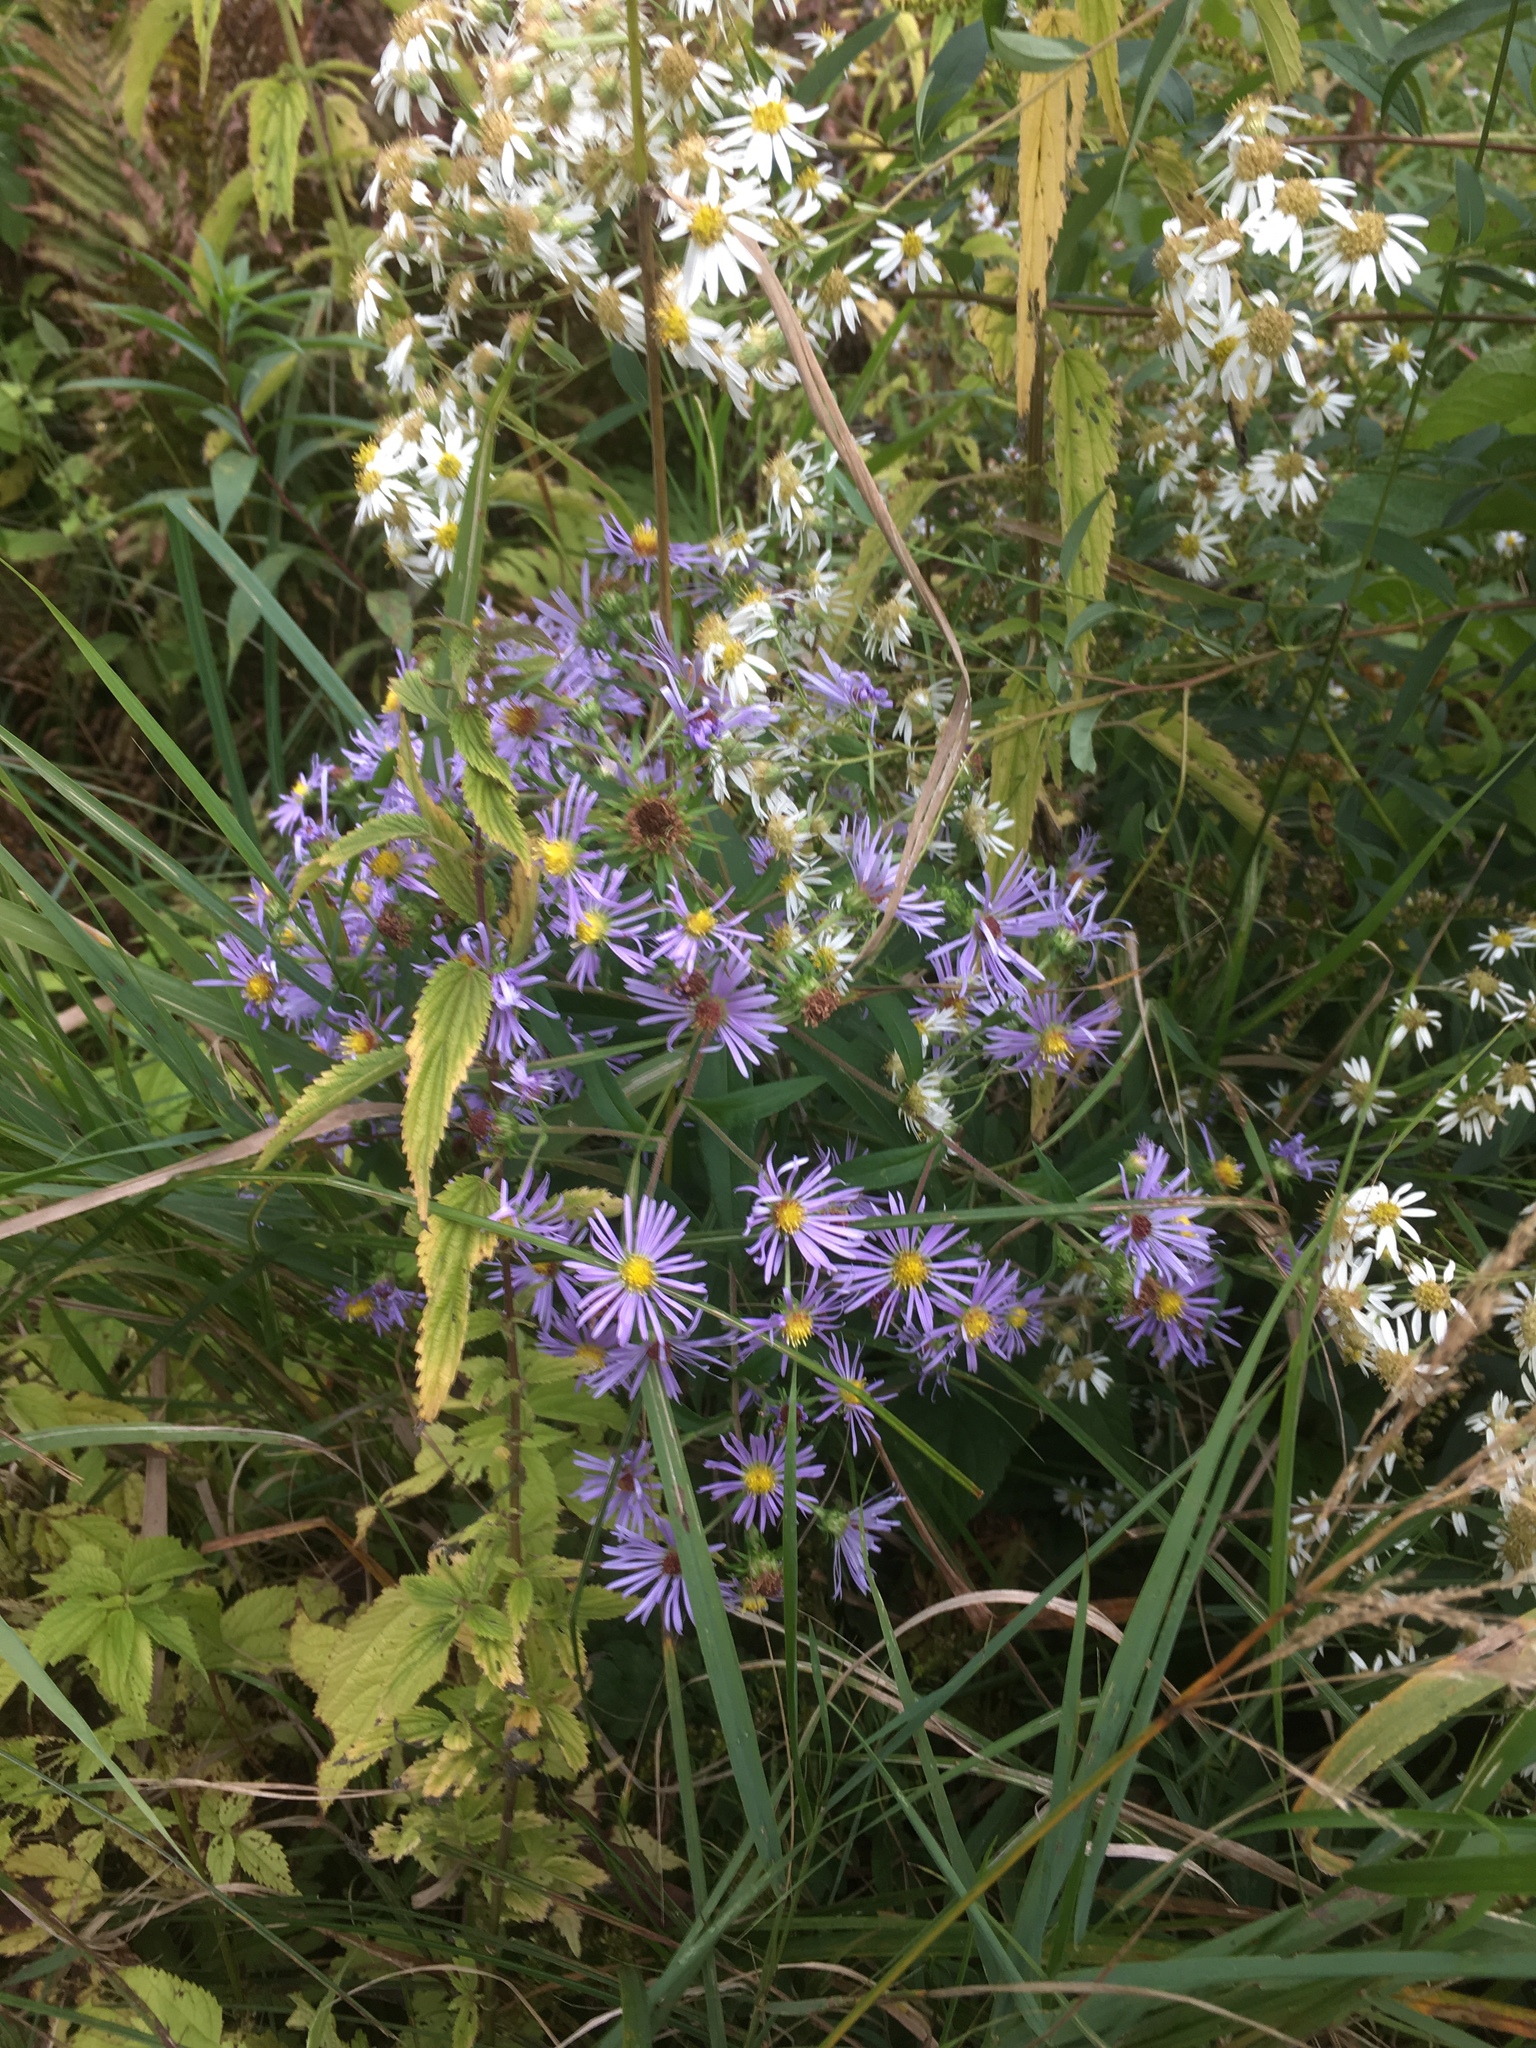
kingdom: Plantae
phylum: Tracheophyta
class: Magnoliopsida
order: Asterales
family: Asteraceae
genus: Symphyotrichum
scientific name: Symphyotrichum puniceum
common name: Bog aster
